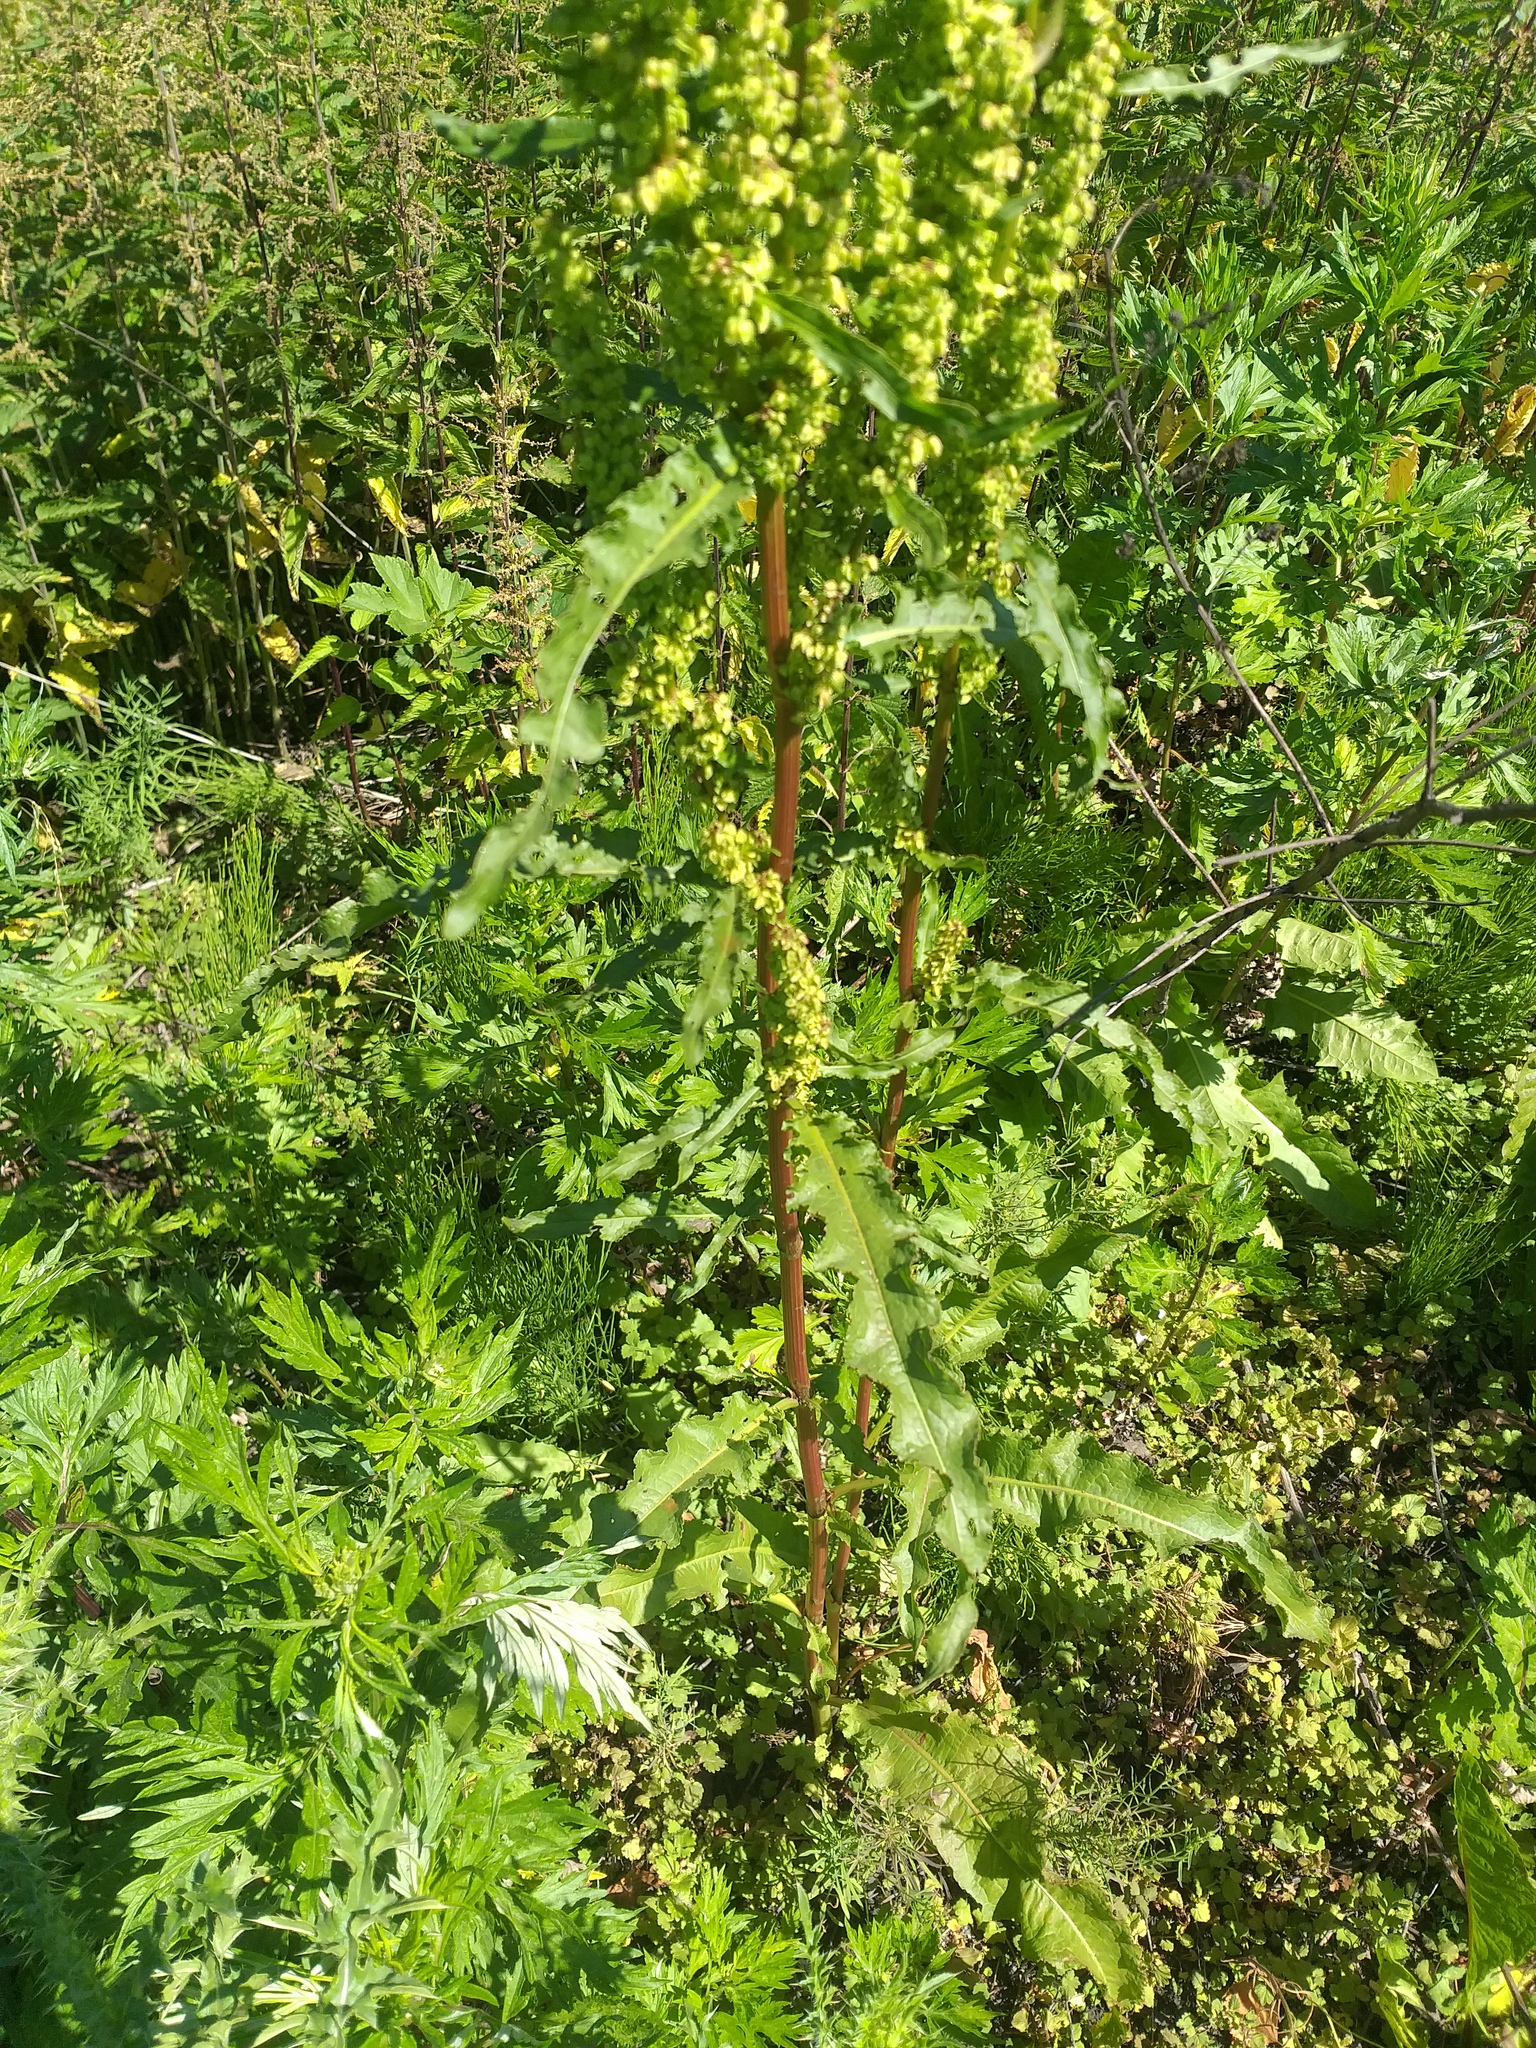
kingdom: Plantae
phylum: Tracheophyta
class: Magnoliopsida
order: Caryophyllales
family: Polygonaceae
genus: Rumex
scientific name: Rumex crispus
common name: Curled dock
